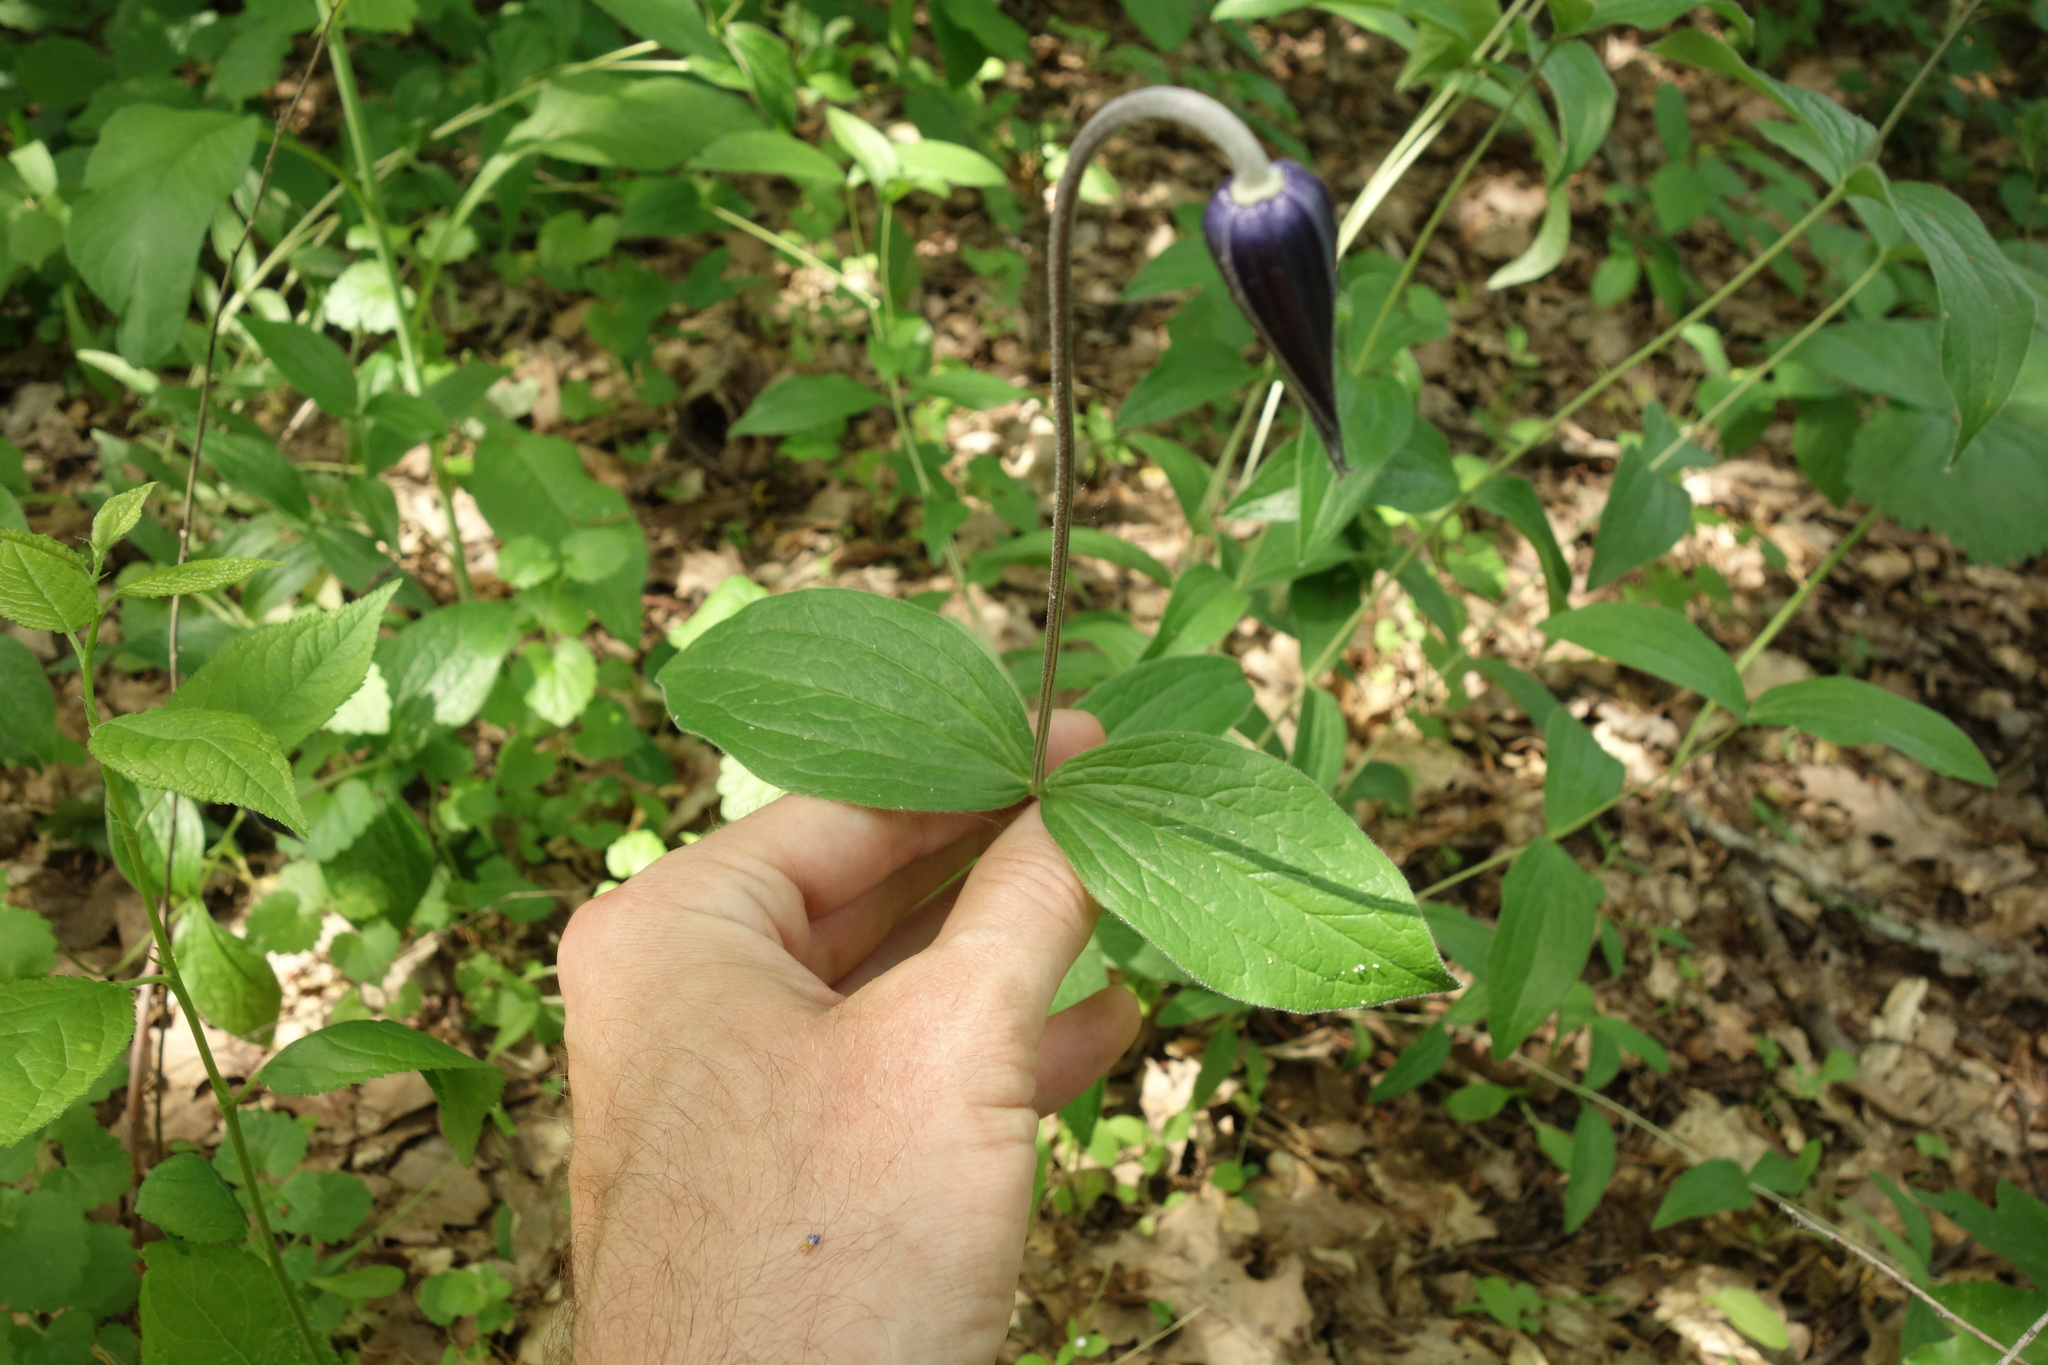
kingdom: Plantae
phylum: Tracheophyta
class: Magnoliopsida
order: Ranunculales
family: Ranunculaceae
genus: Clematis
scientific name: Clematis integrifolia
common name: Solitary clematis
